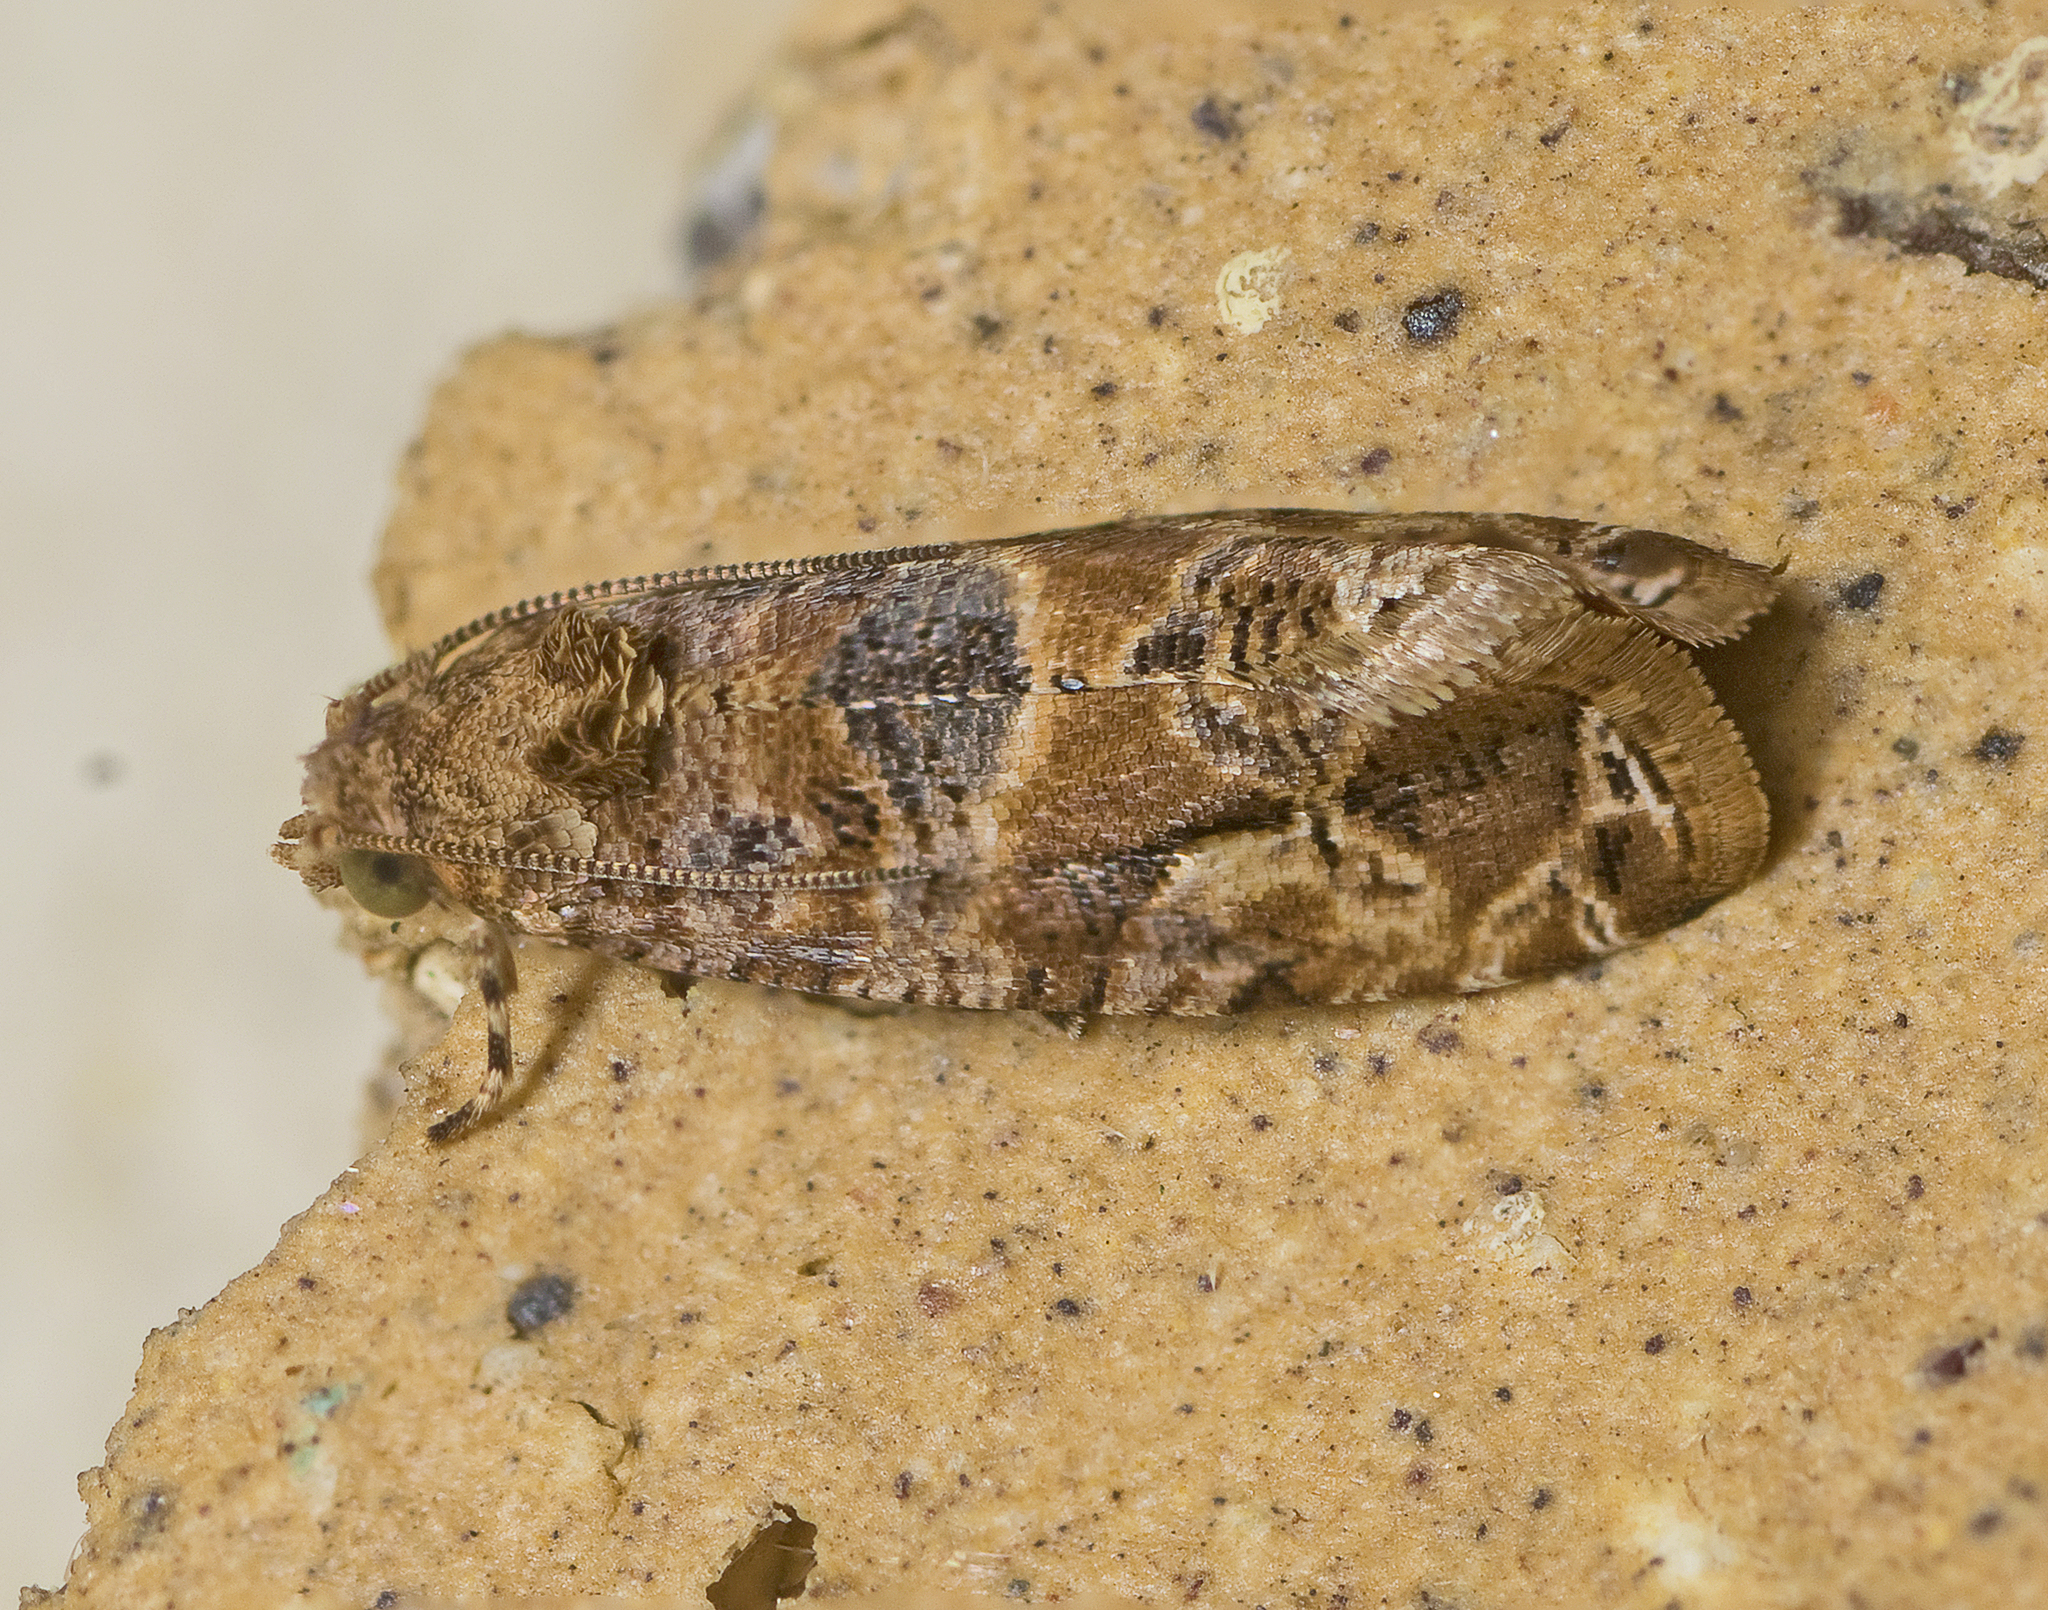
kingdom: Animalia
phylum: Arthropoda
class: Insecta
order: Lepidoptera
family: Tortricidae
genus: Lobesia
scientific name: Lobesia transtrifera
